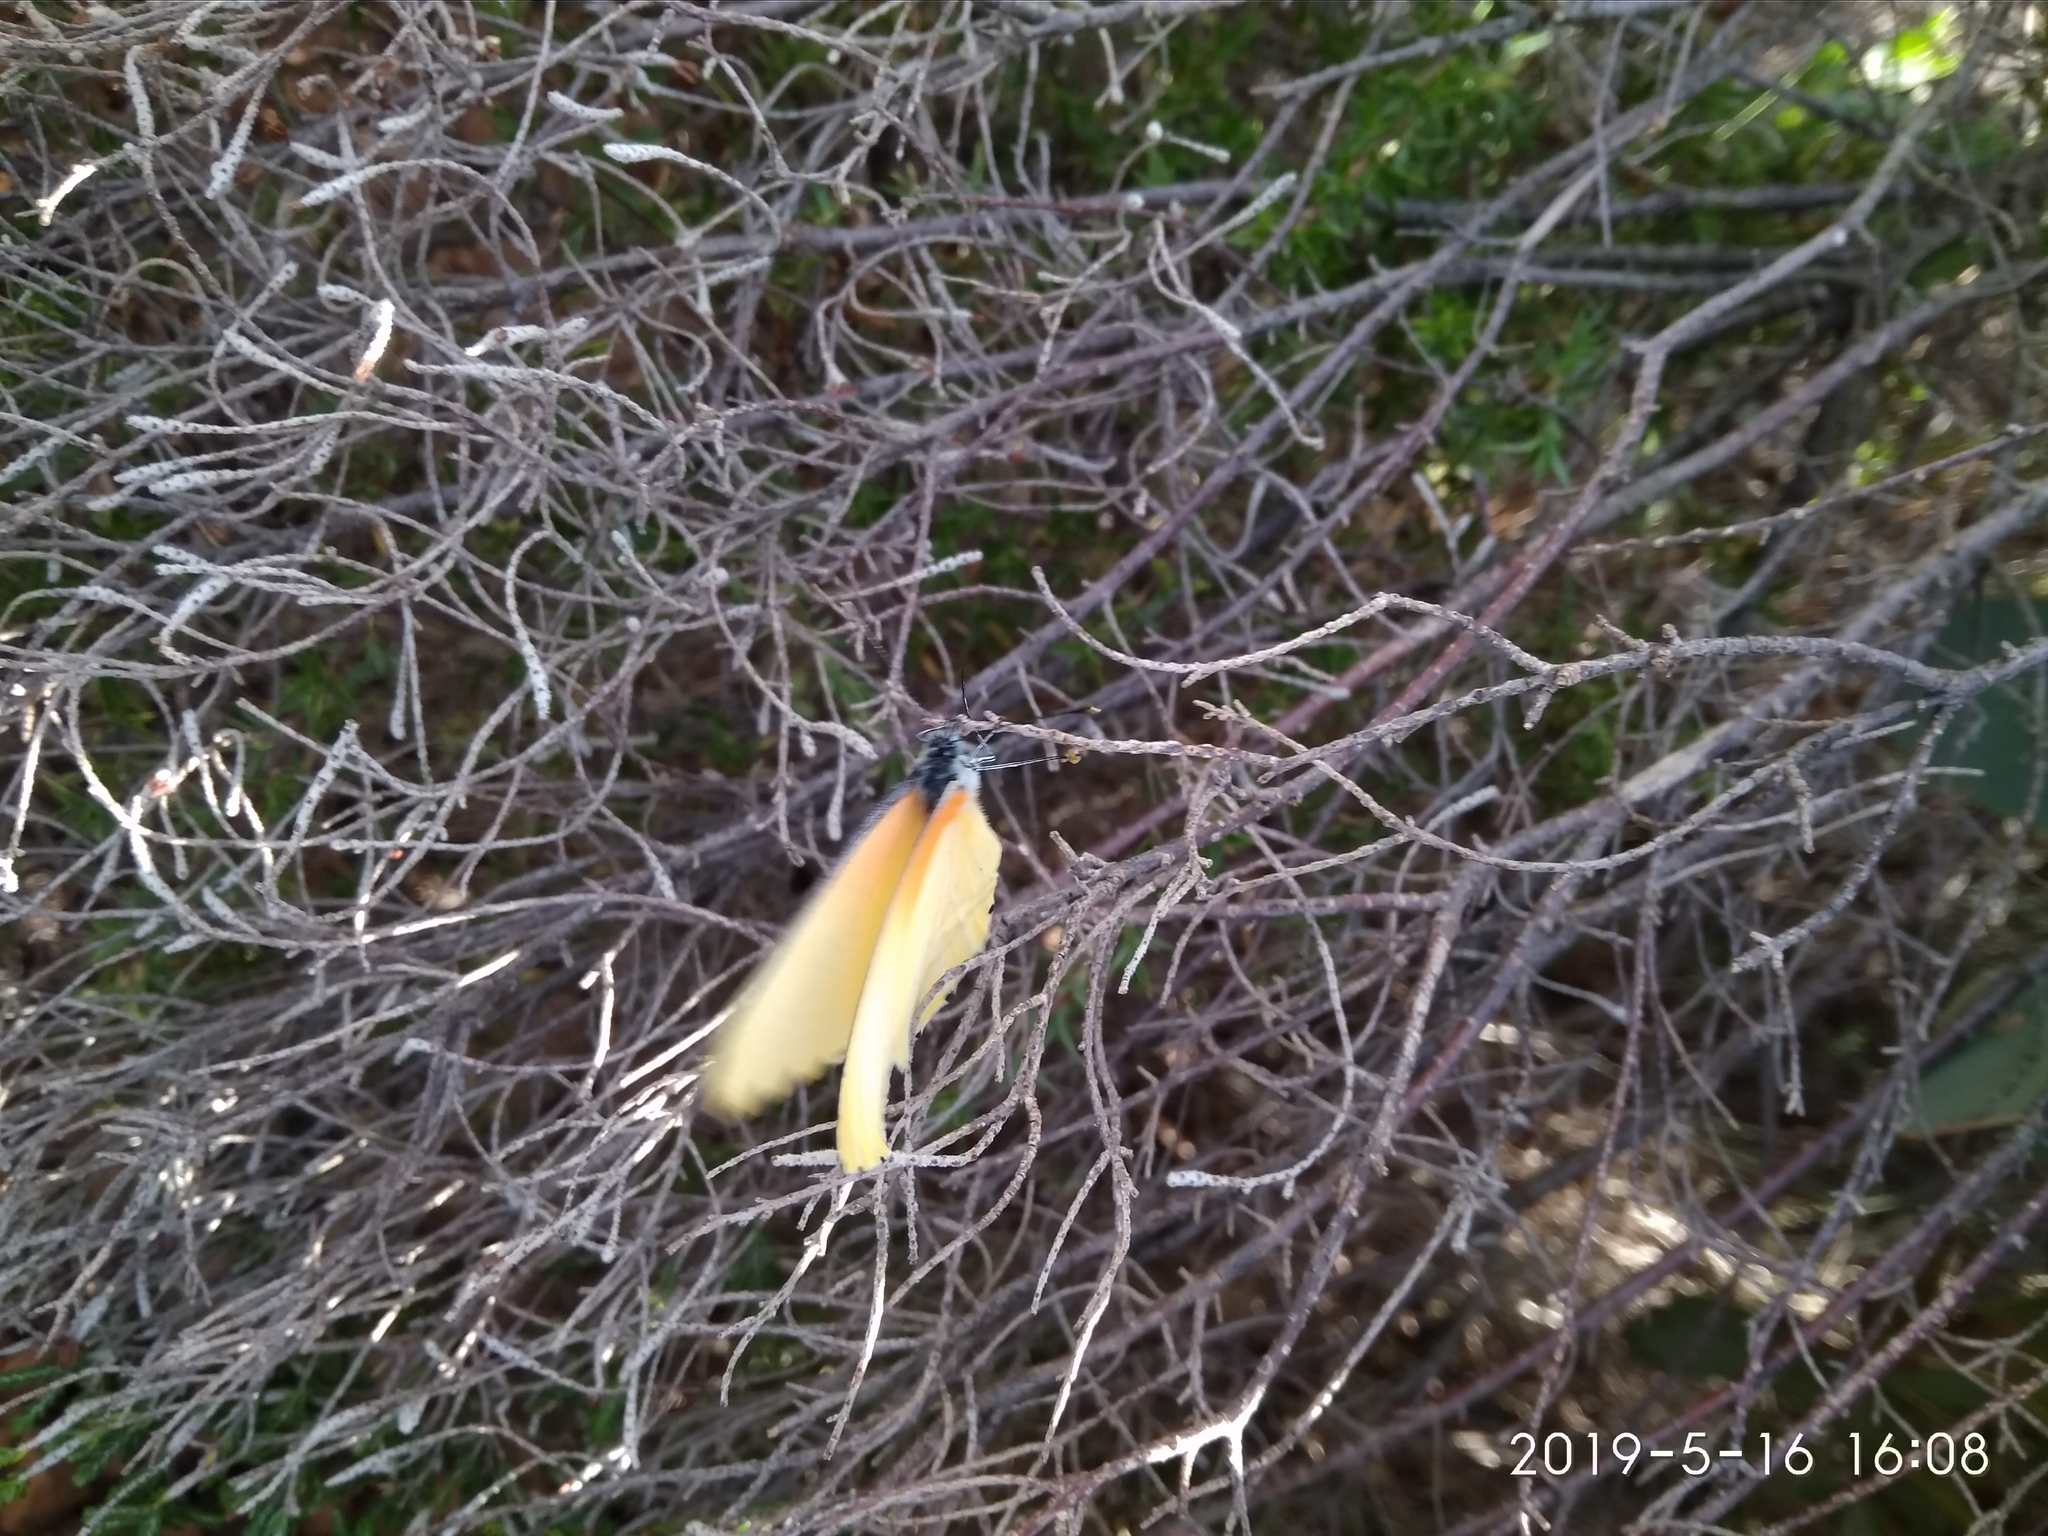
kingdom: Animalia
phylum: Arthropoda
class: Insecta
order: Lepidoptera
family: Pieridae
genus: Mylothris
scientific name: Mylothris agathina
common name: Eastern dotted border
